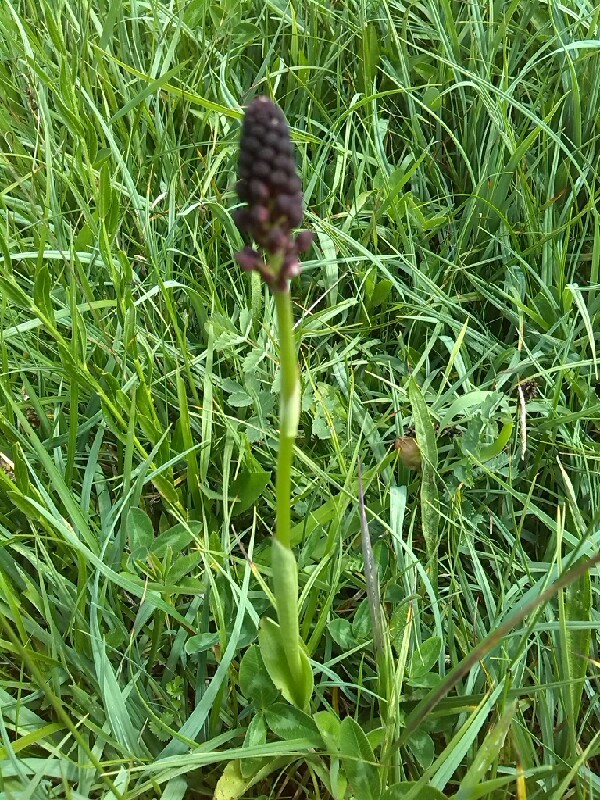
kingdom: Plantae
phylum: Tracheophyta
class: Liliopsida
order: Asparagales
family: Orchidaceae
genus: Neotinea
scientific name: Neotinea ustulata
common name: Burnt orchid
